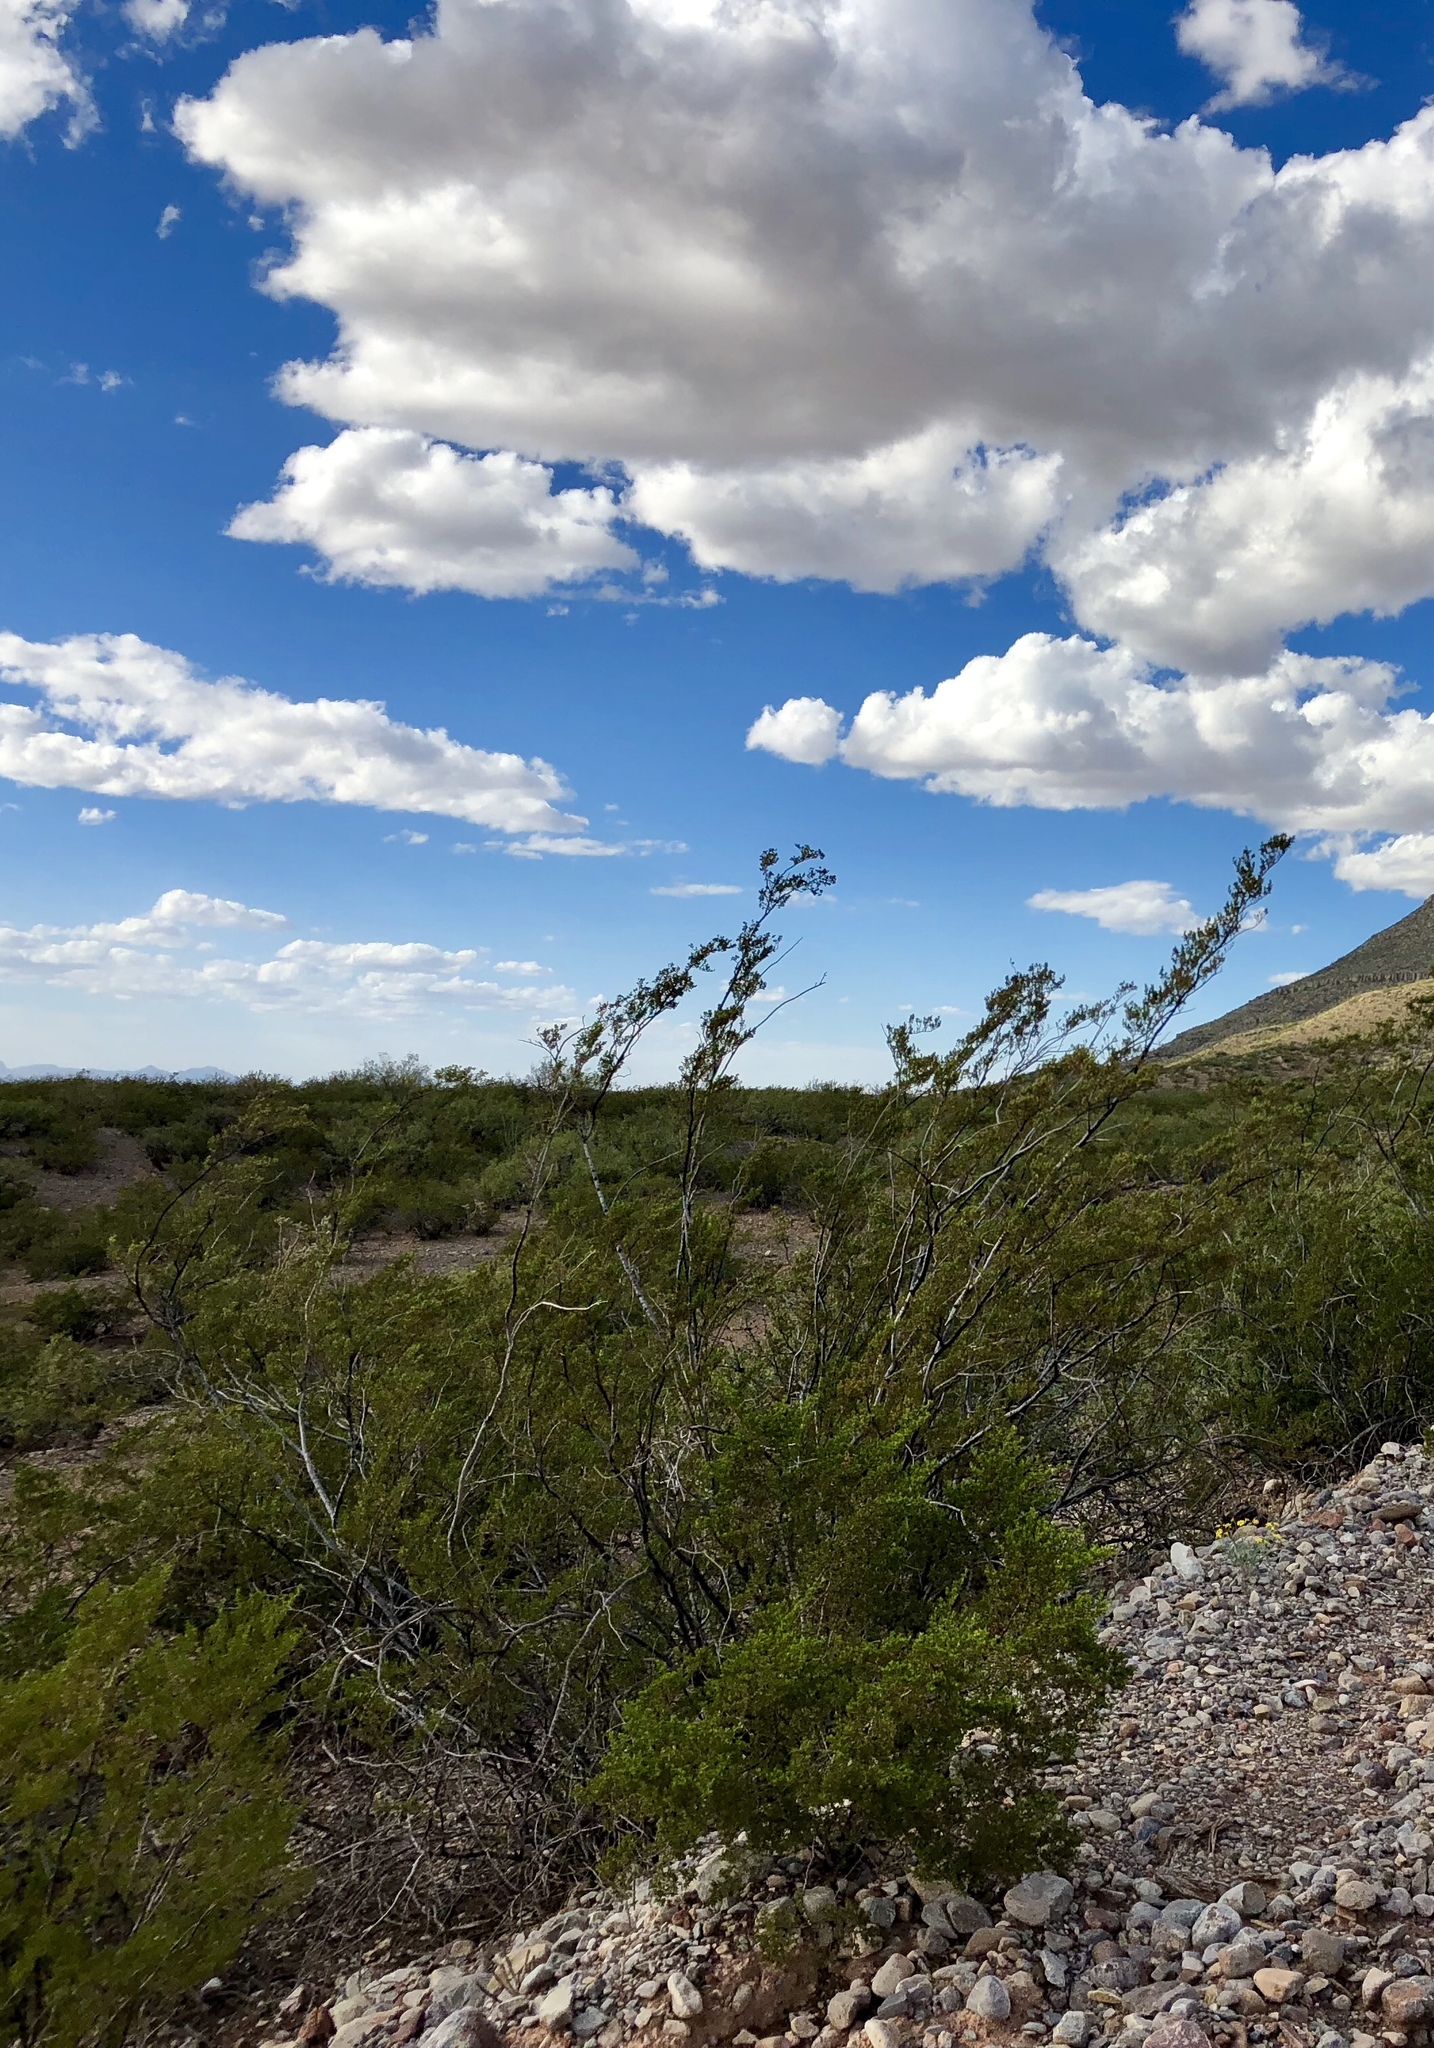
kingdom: Plantae
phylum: Tracheophyta
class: Magnoliopsida
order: Zygophyllales
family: Zygophyllaceae
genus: Larrea
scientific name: Larrea tridentata
